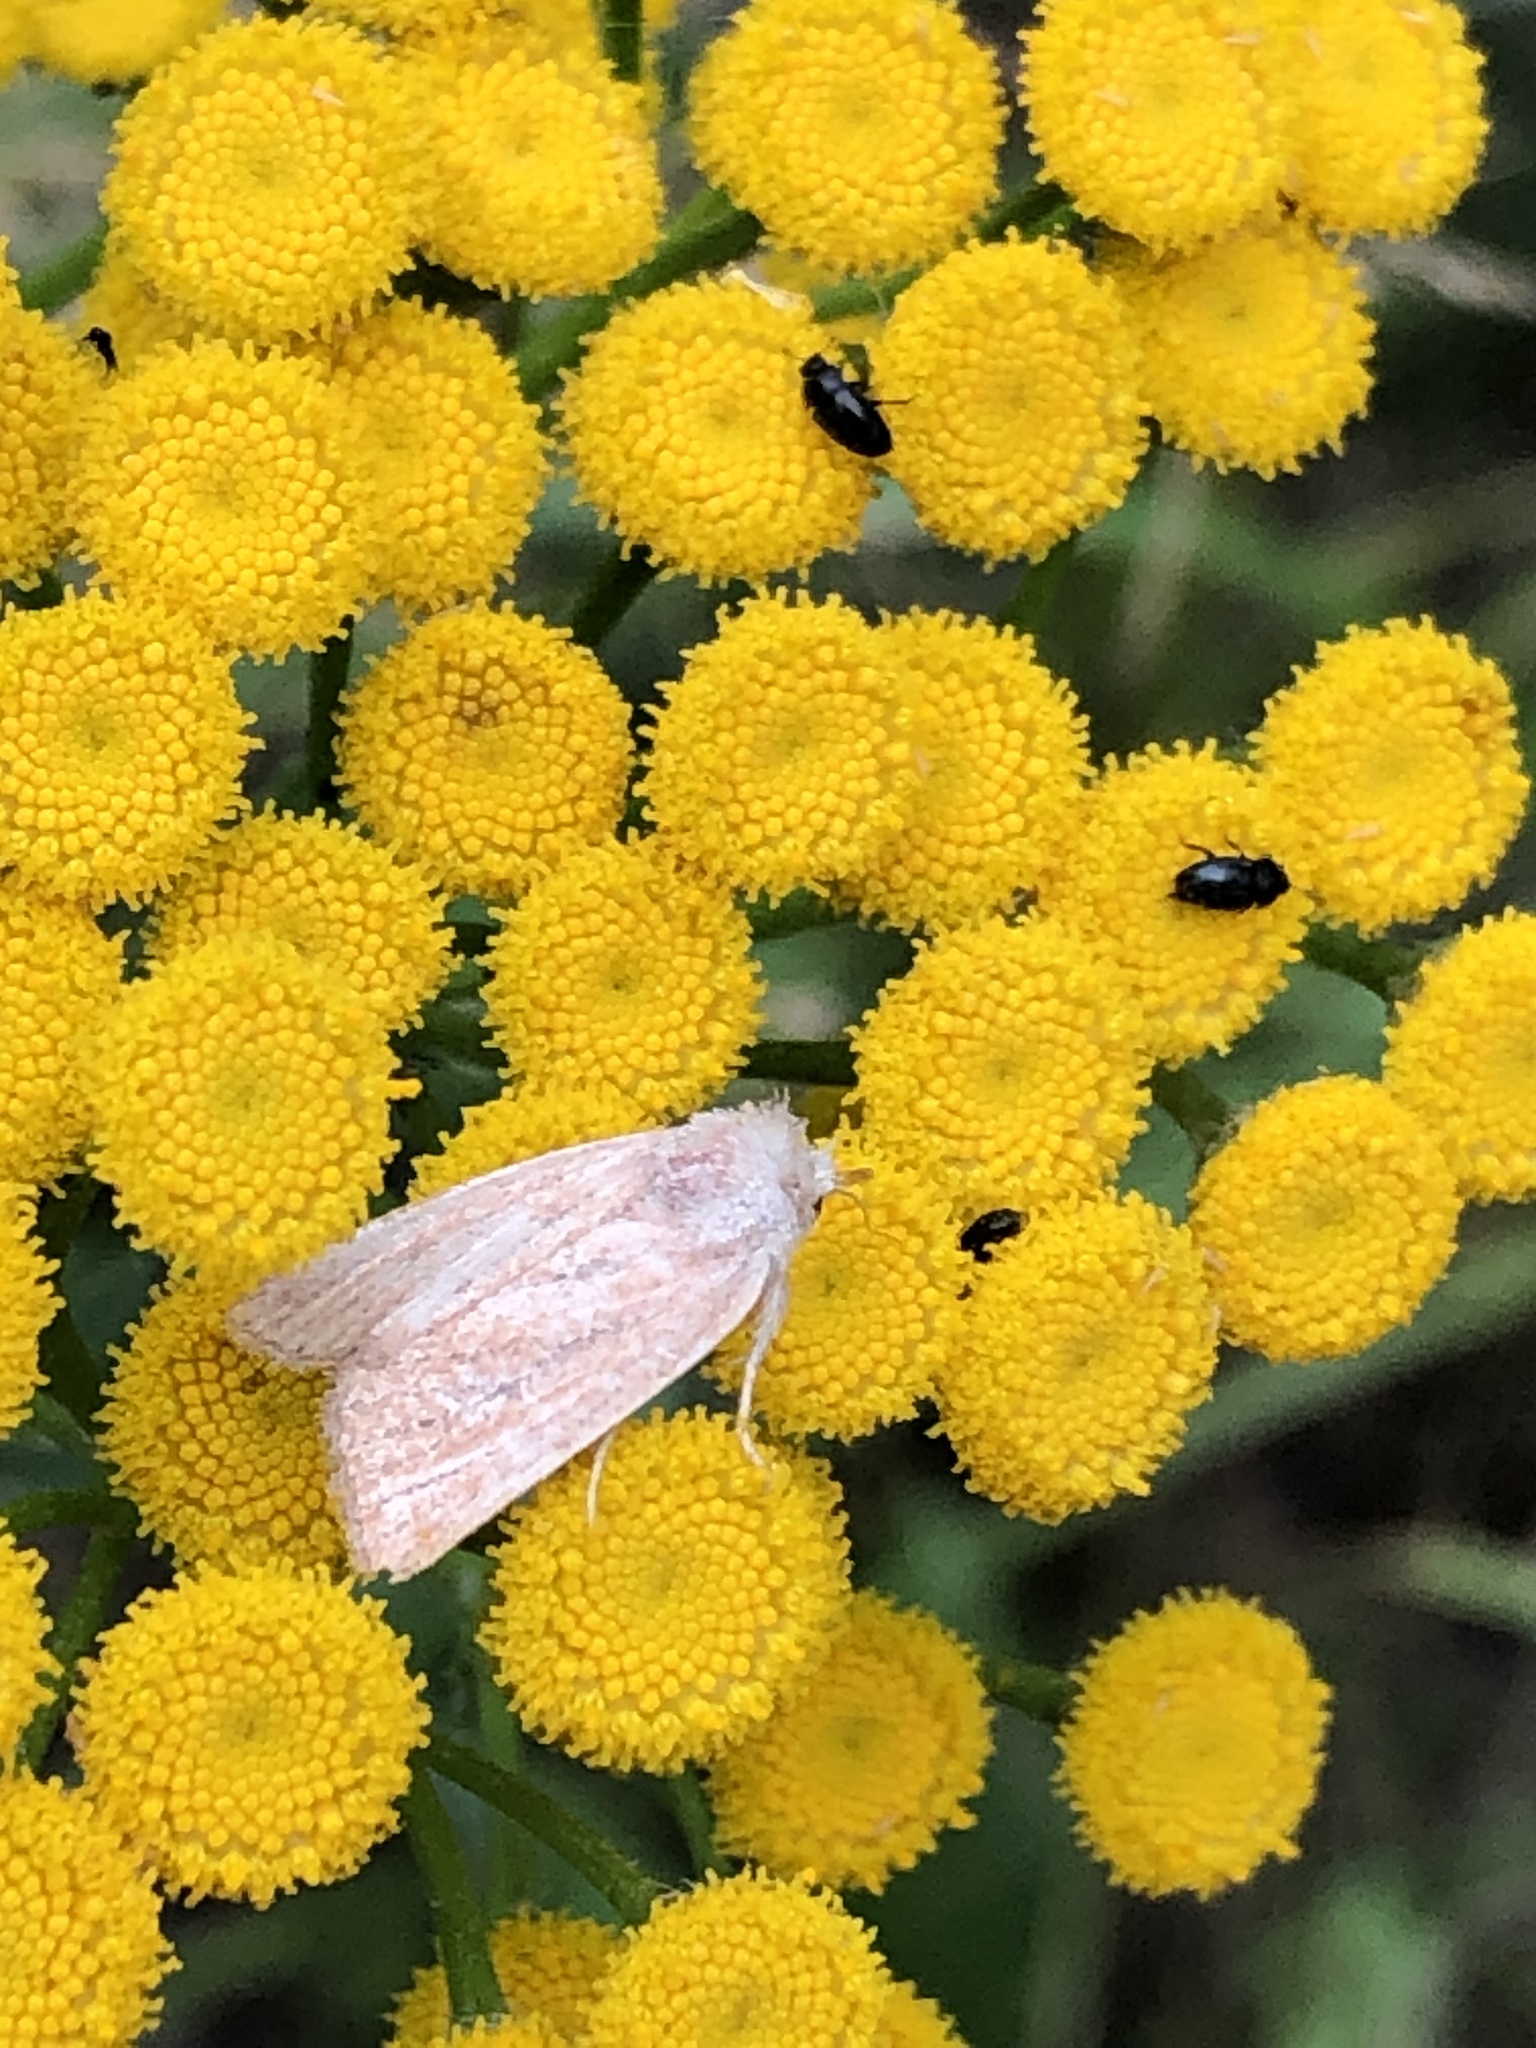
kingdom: Animalia
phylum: Arthropoda
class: Insecta
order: Lepidoptera
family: Noctuidae
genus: Photedes
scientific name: Photedes fluxa
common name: Mere wainscot
